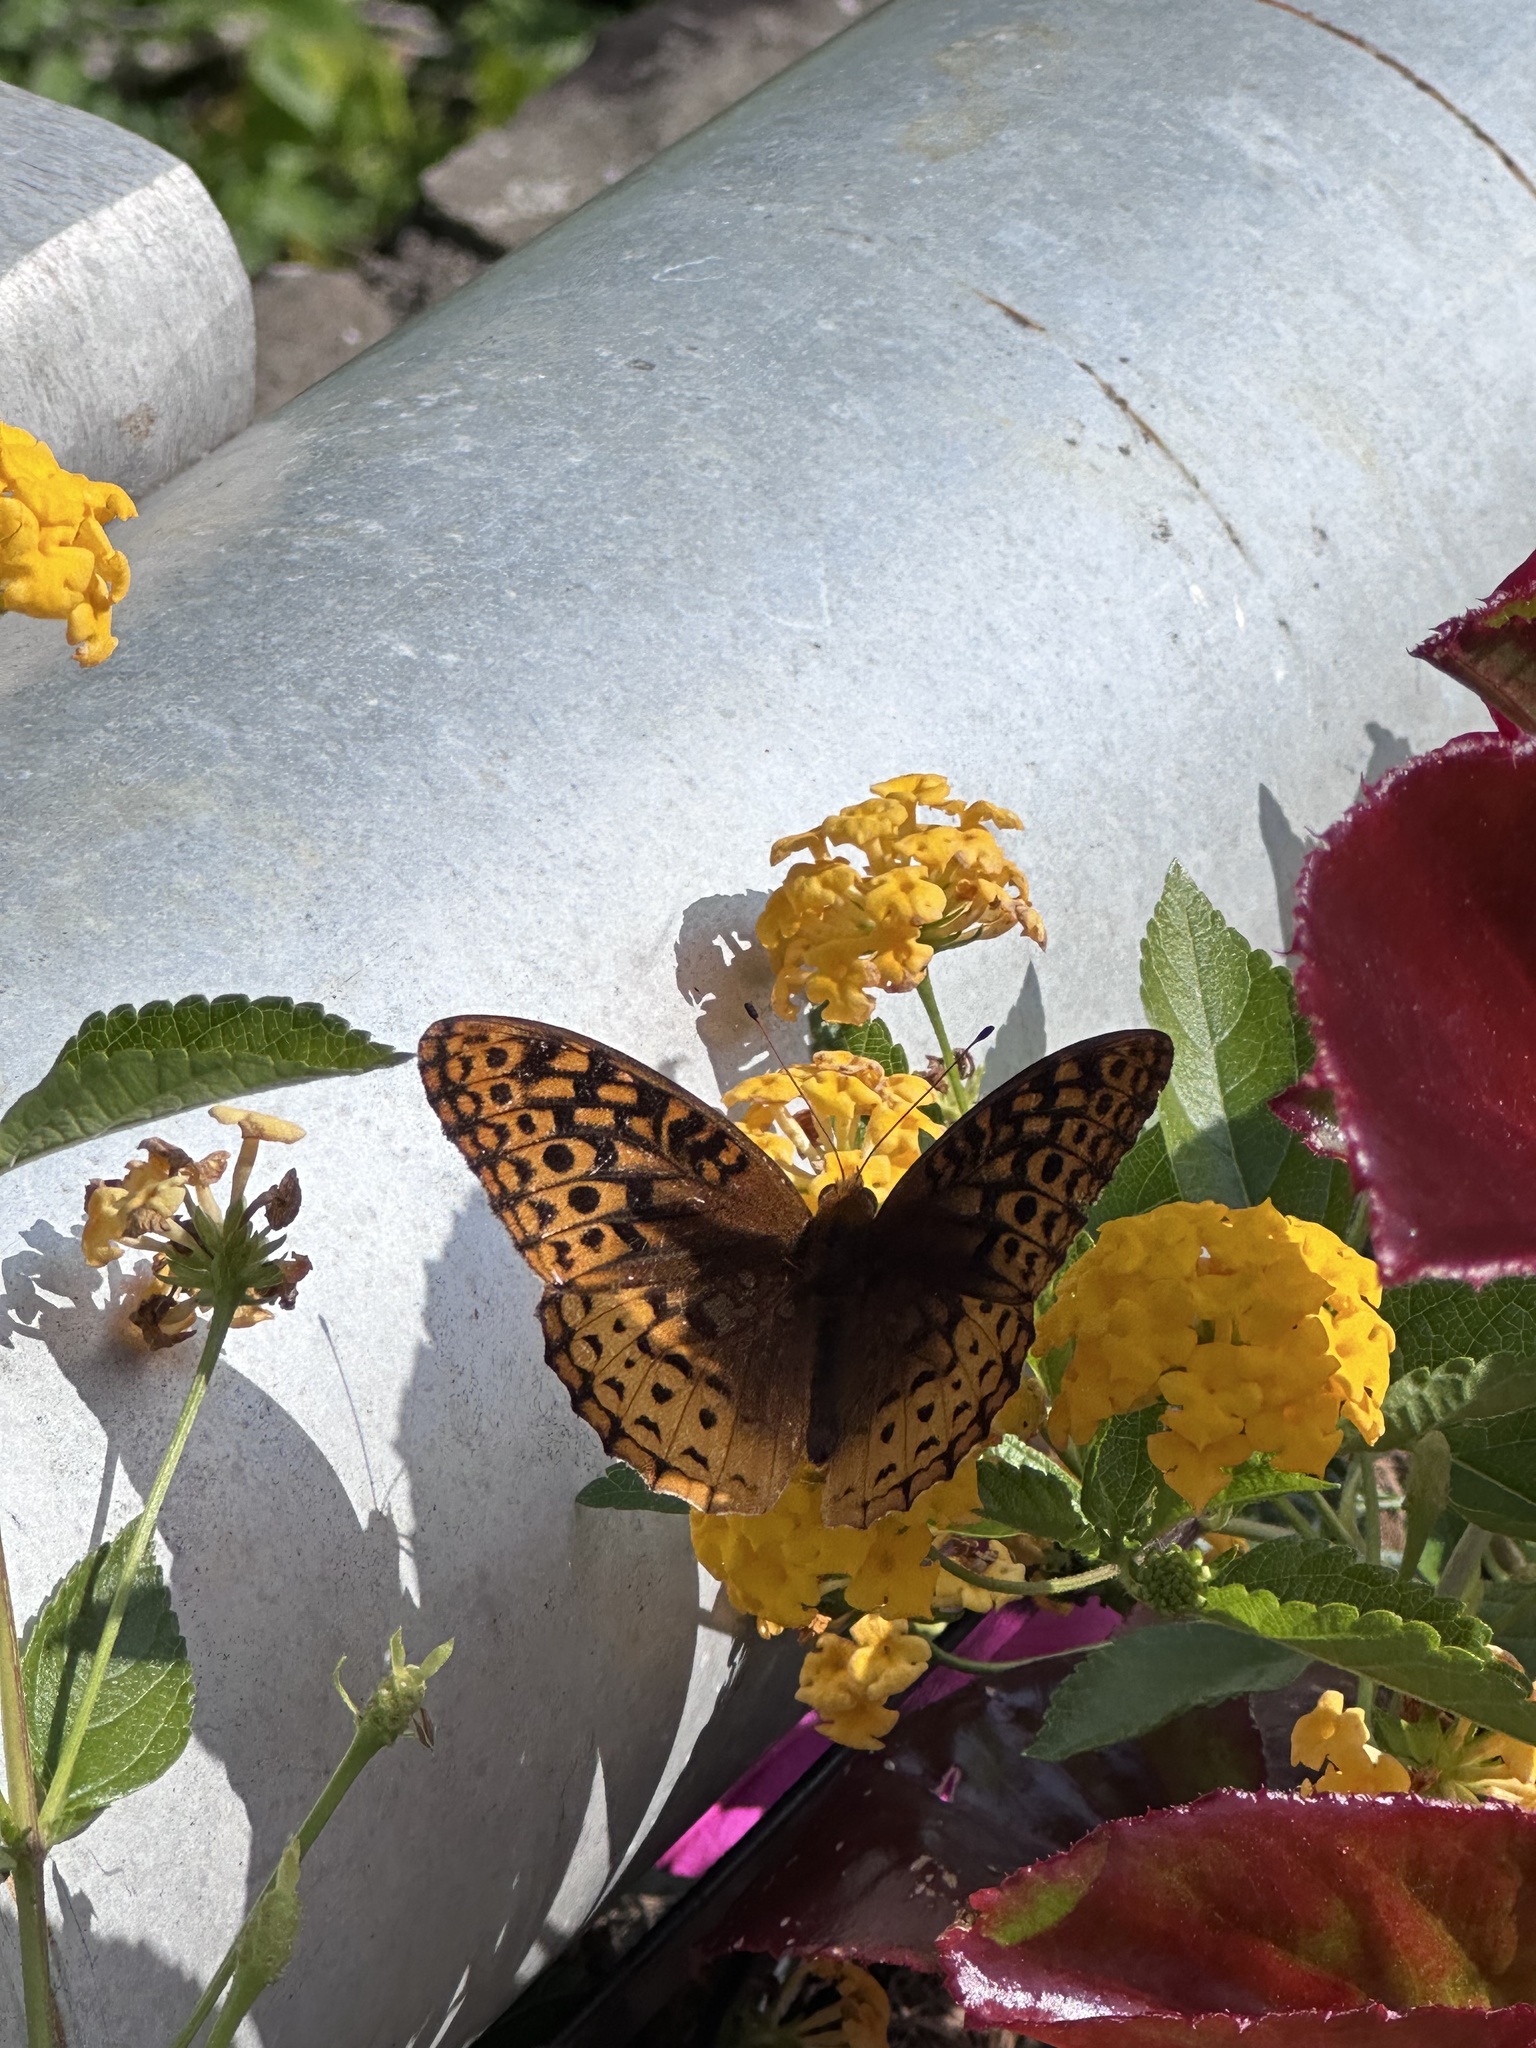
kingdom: Animalia
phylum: Arthropoda
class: Insecta
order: Lepidoptera
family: Nymphalidae
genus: Speyeria
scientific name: Speyeria cybele
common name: Great spangled fritillary
